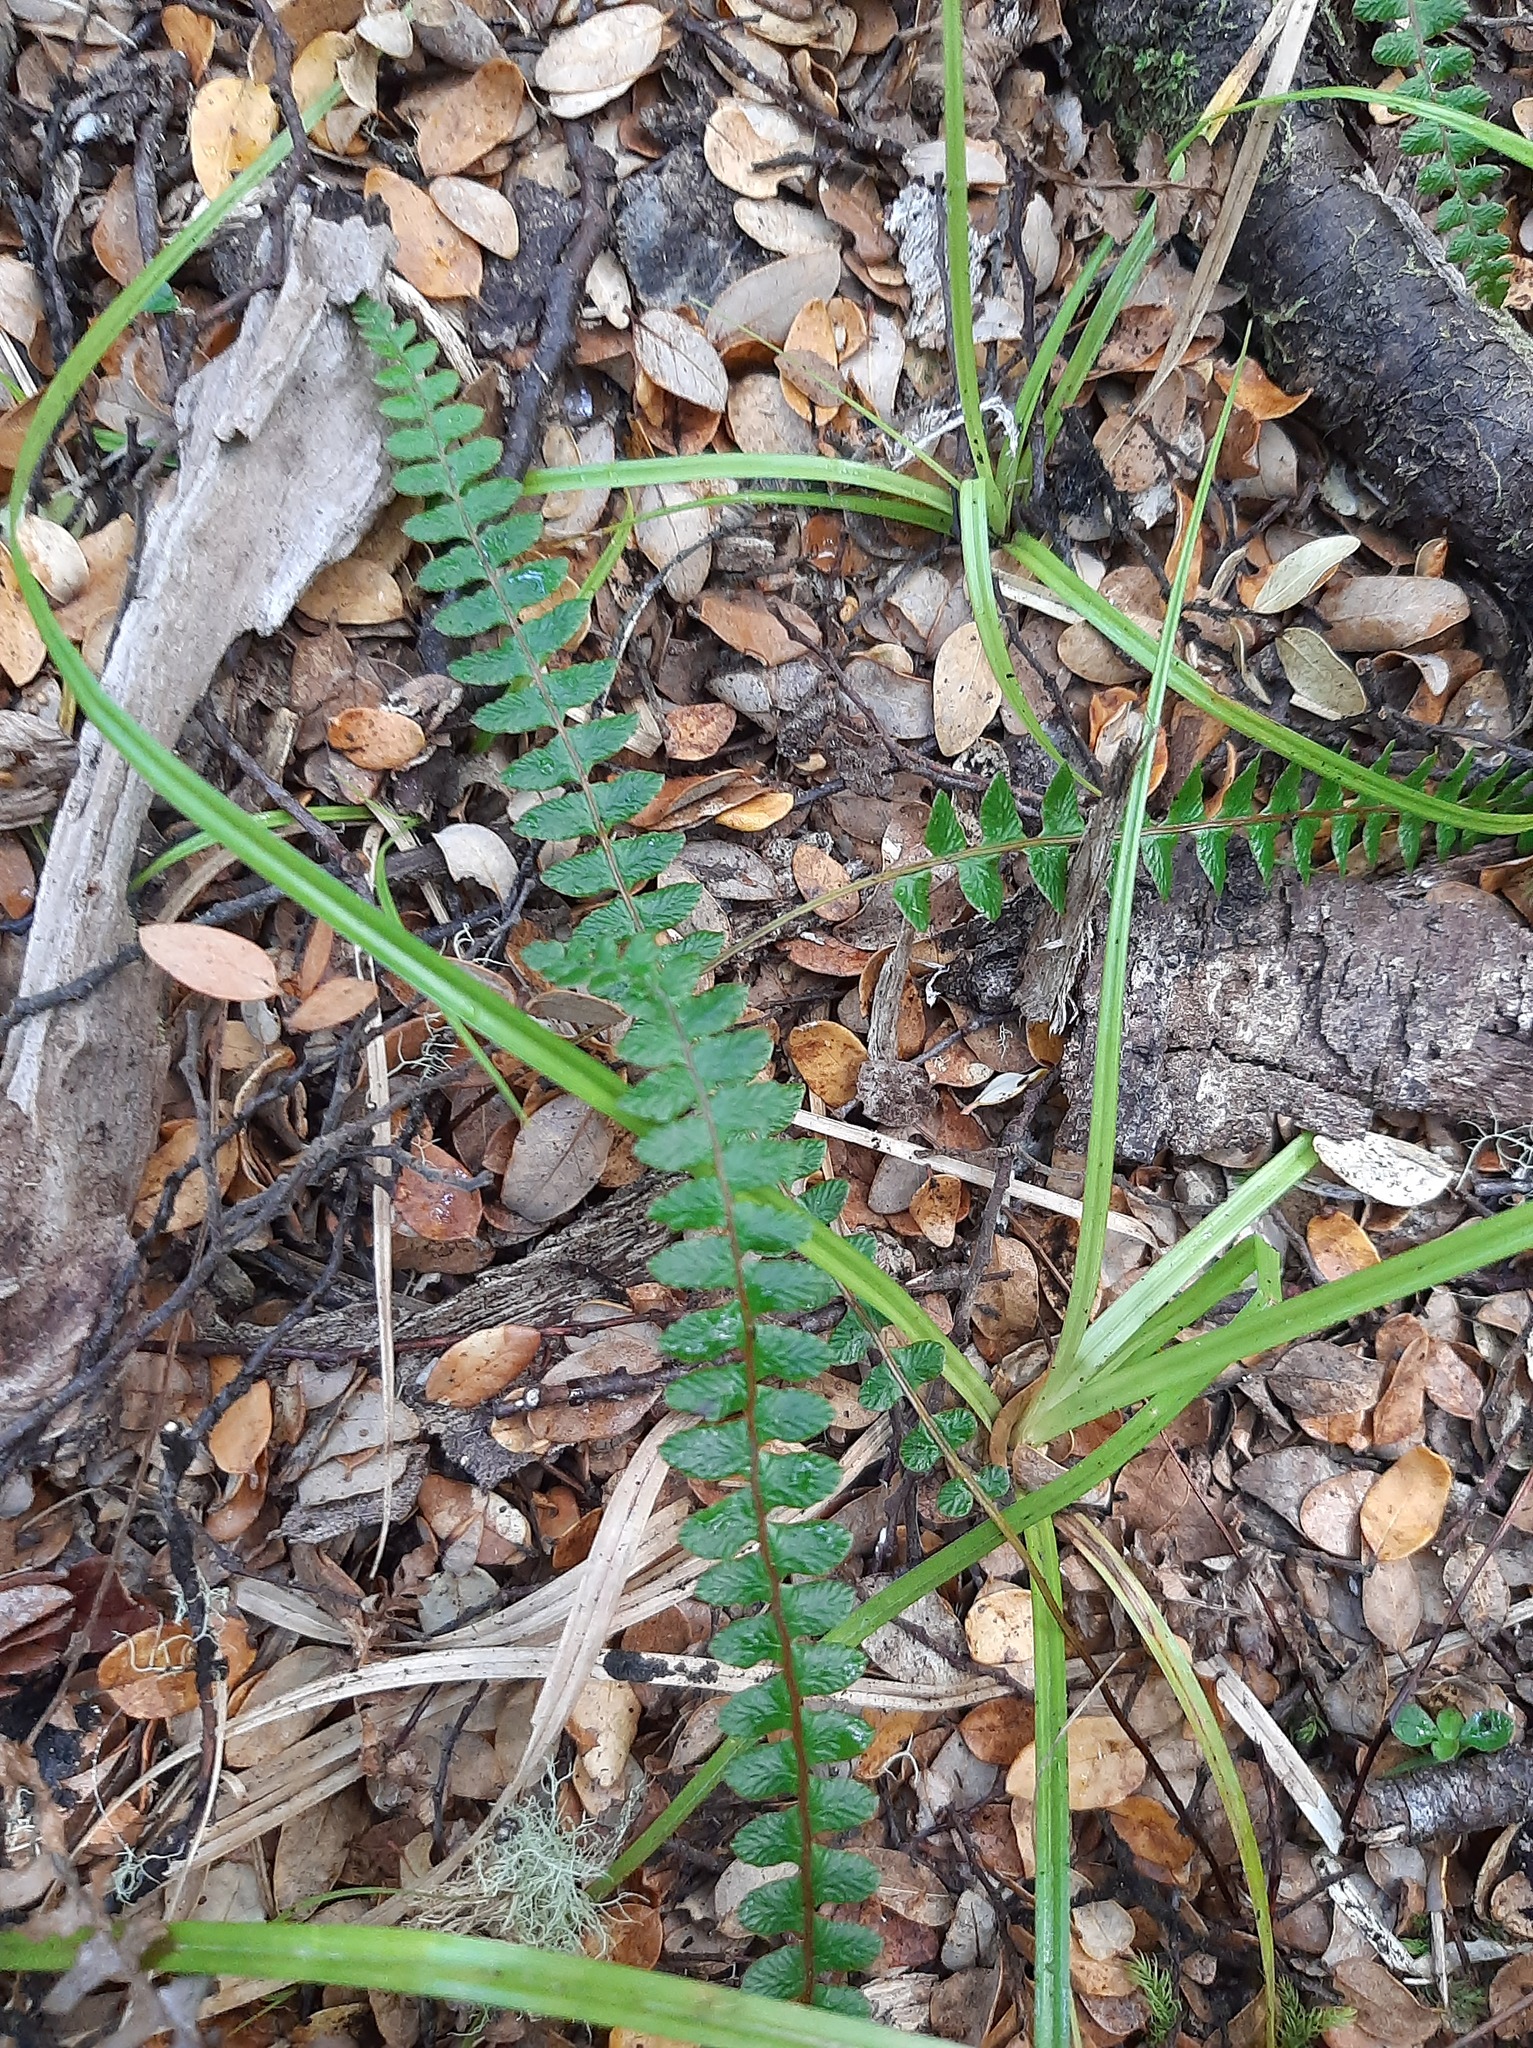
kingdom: Plantae
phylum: Tracheophyta
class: Polypodiopsida
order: Polypodiales
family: Blechnaceae
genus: Austroblechnum
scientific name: Austroblechnum penna-marina
